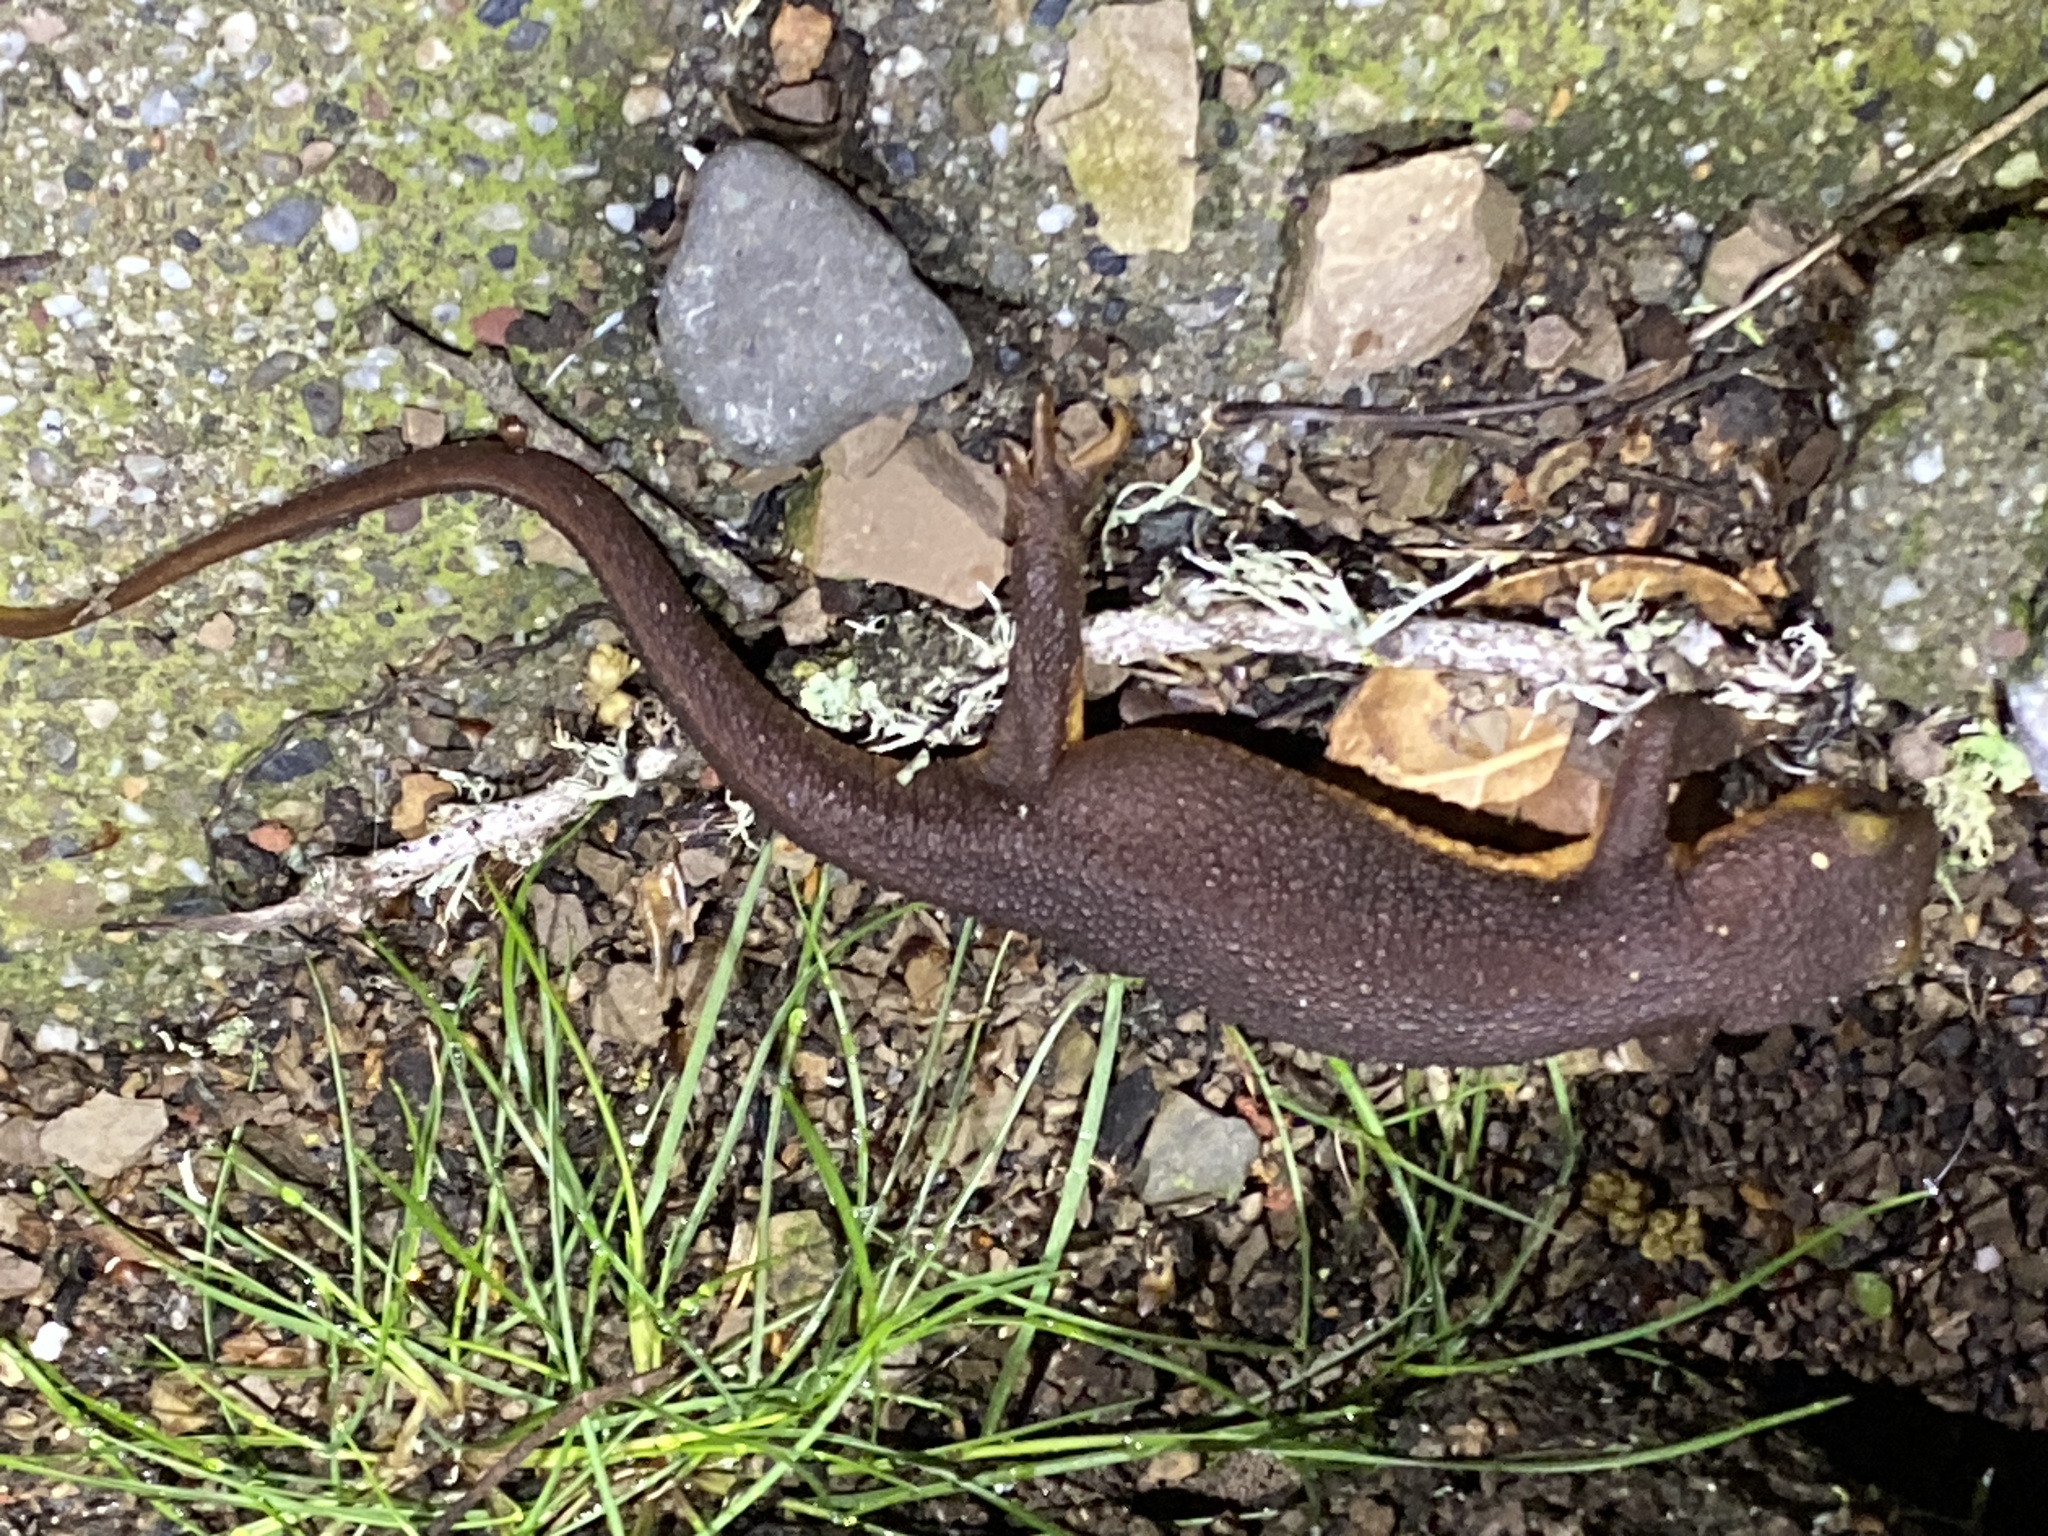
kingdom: Animalia
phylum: Chordata
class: Amphibia
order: Caudata
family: Salamandridae
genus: Taricha
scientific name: Taricha torosa
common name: California newt
